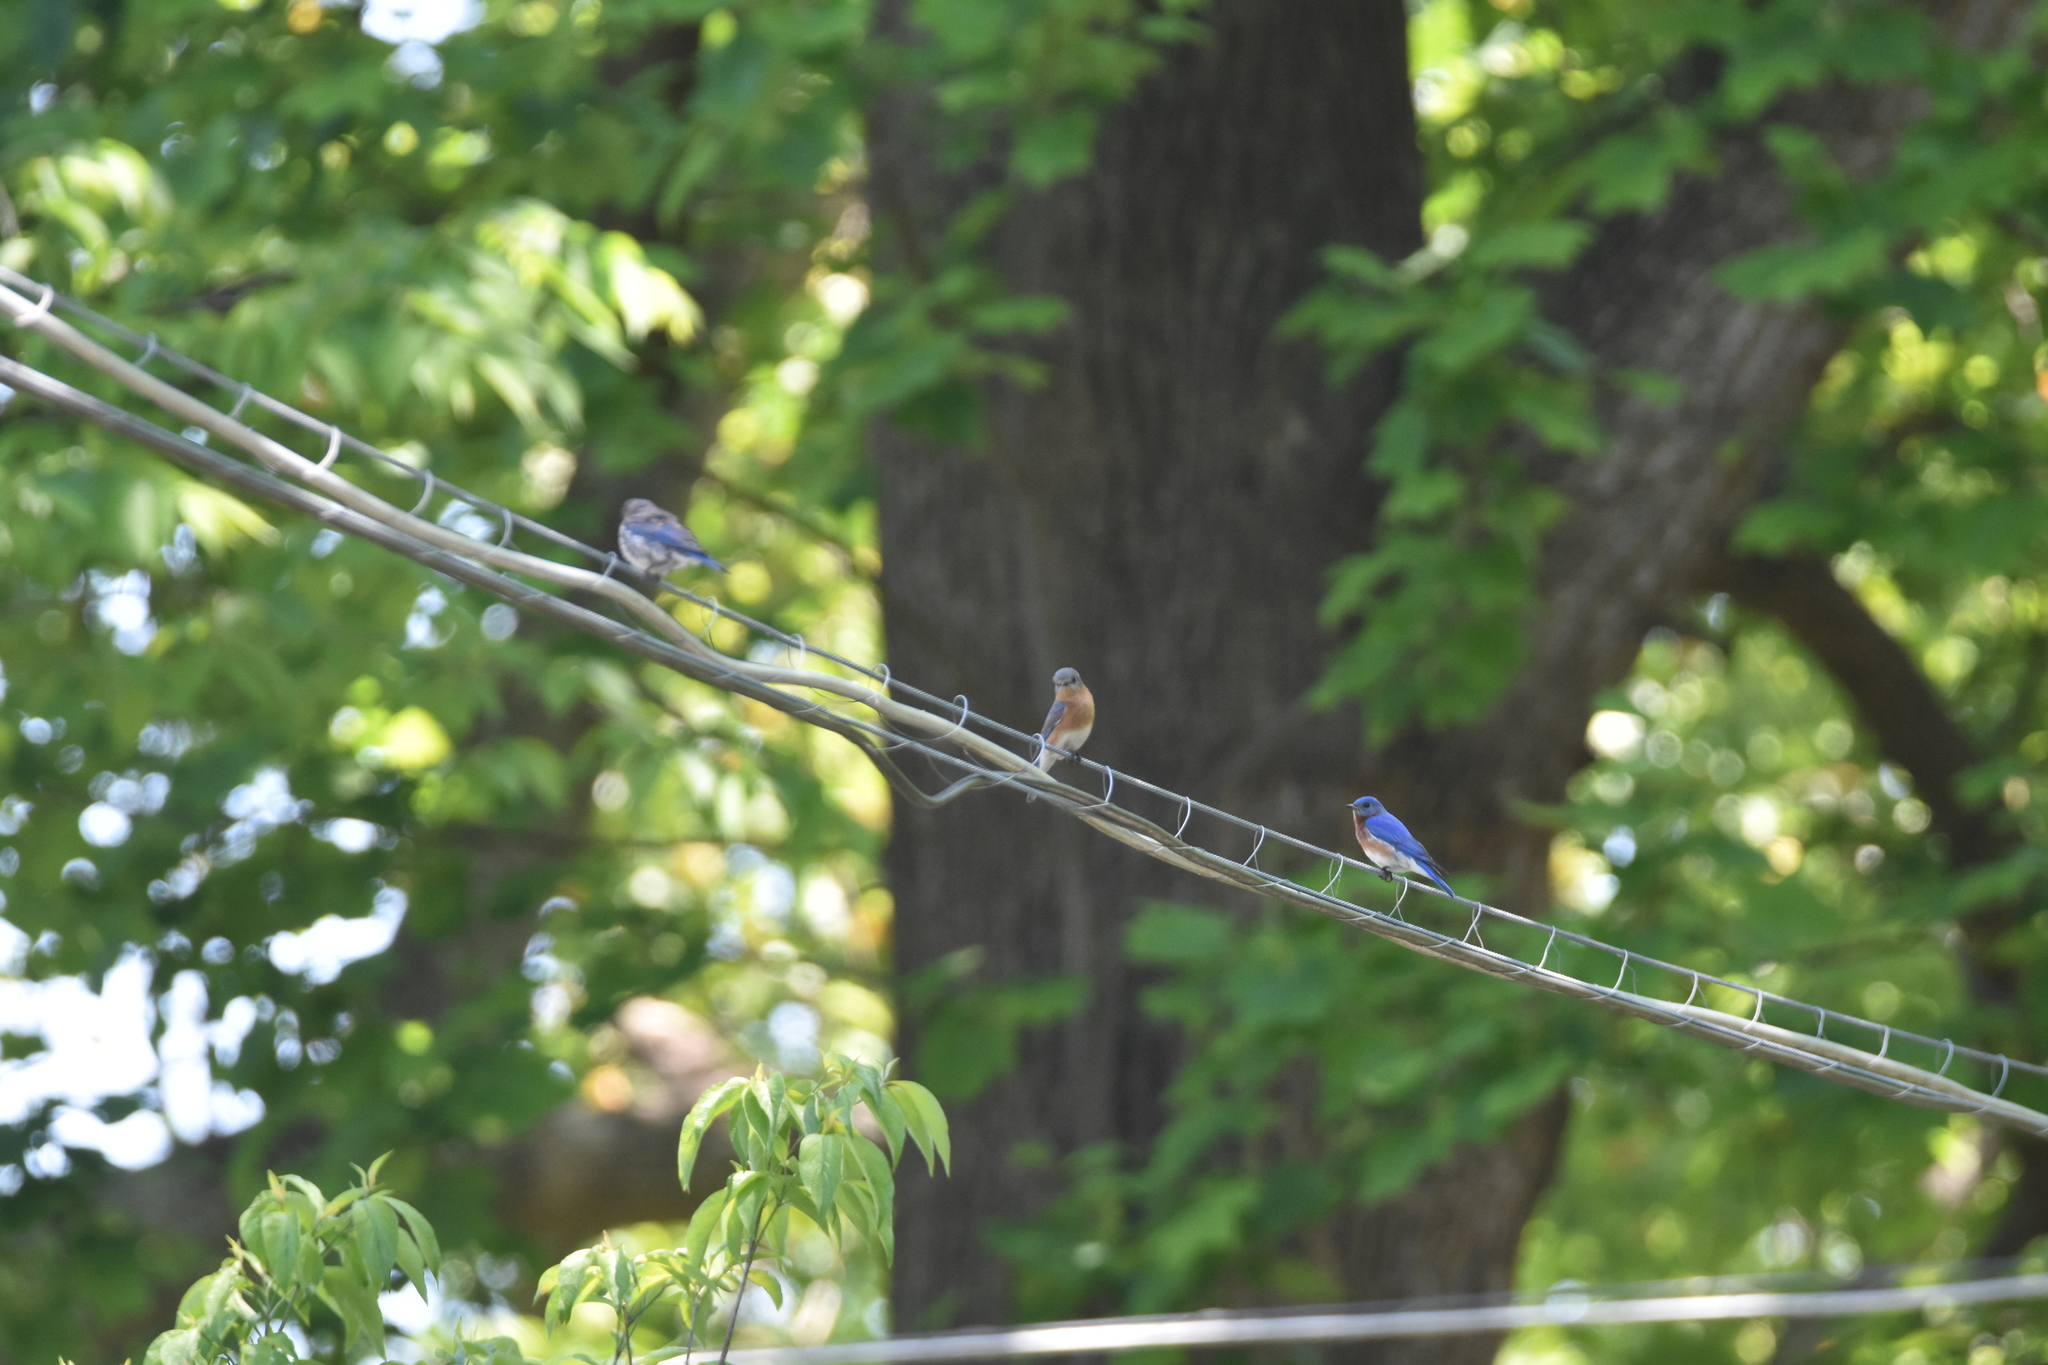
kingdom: Animalia
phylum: Chordata
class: Aves
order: Passeriformes
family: Turdidae
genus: Sialia
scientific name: Sialia sialis
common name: Eastern bluebird
